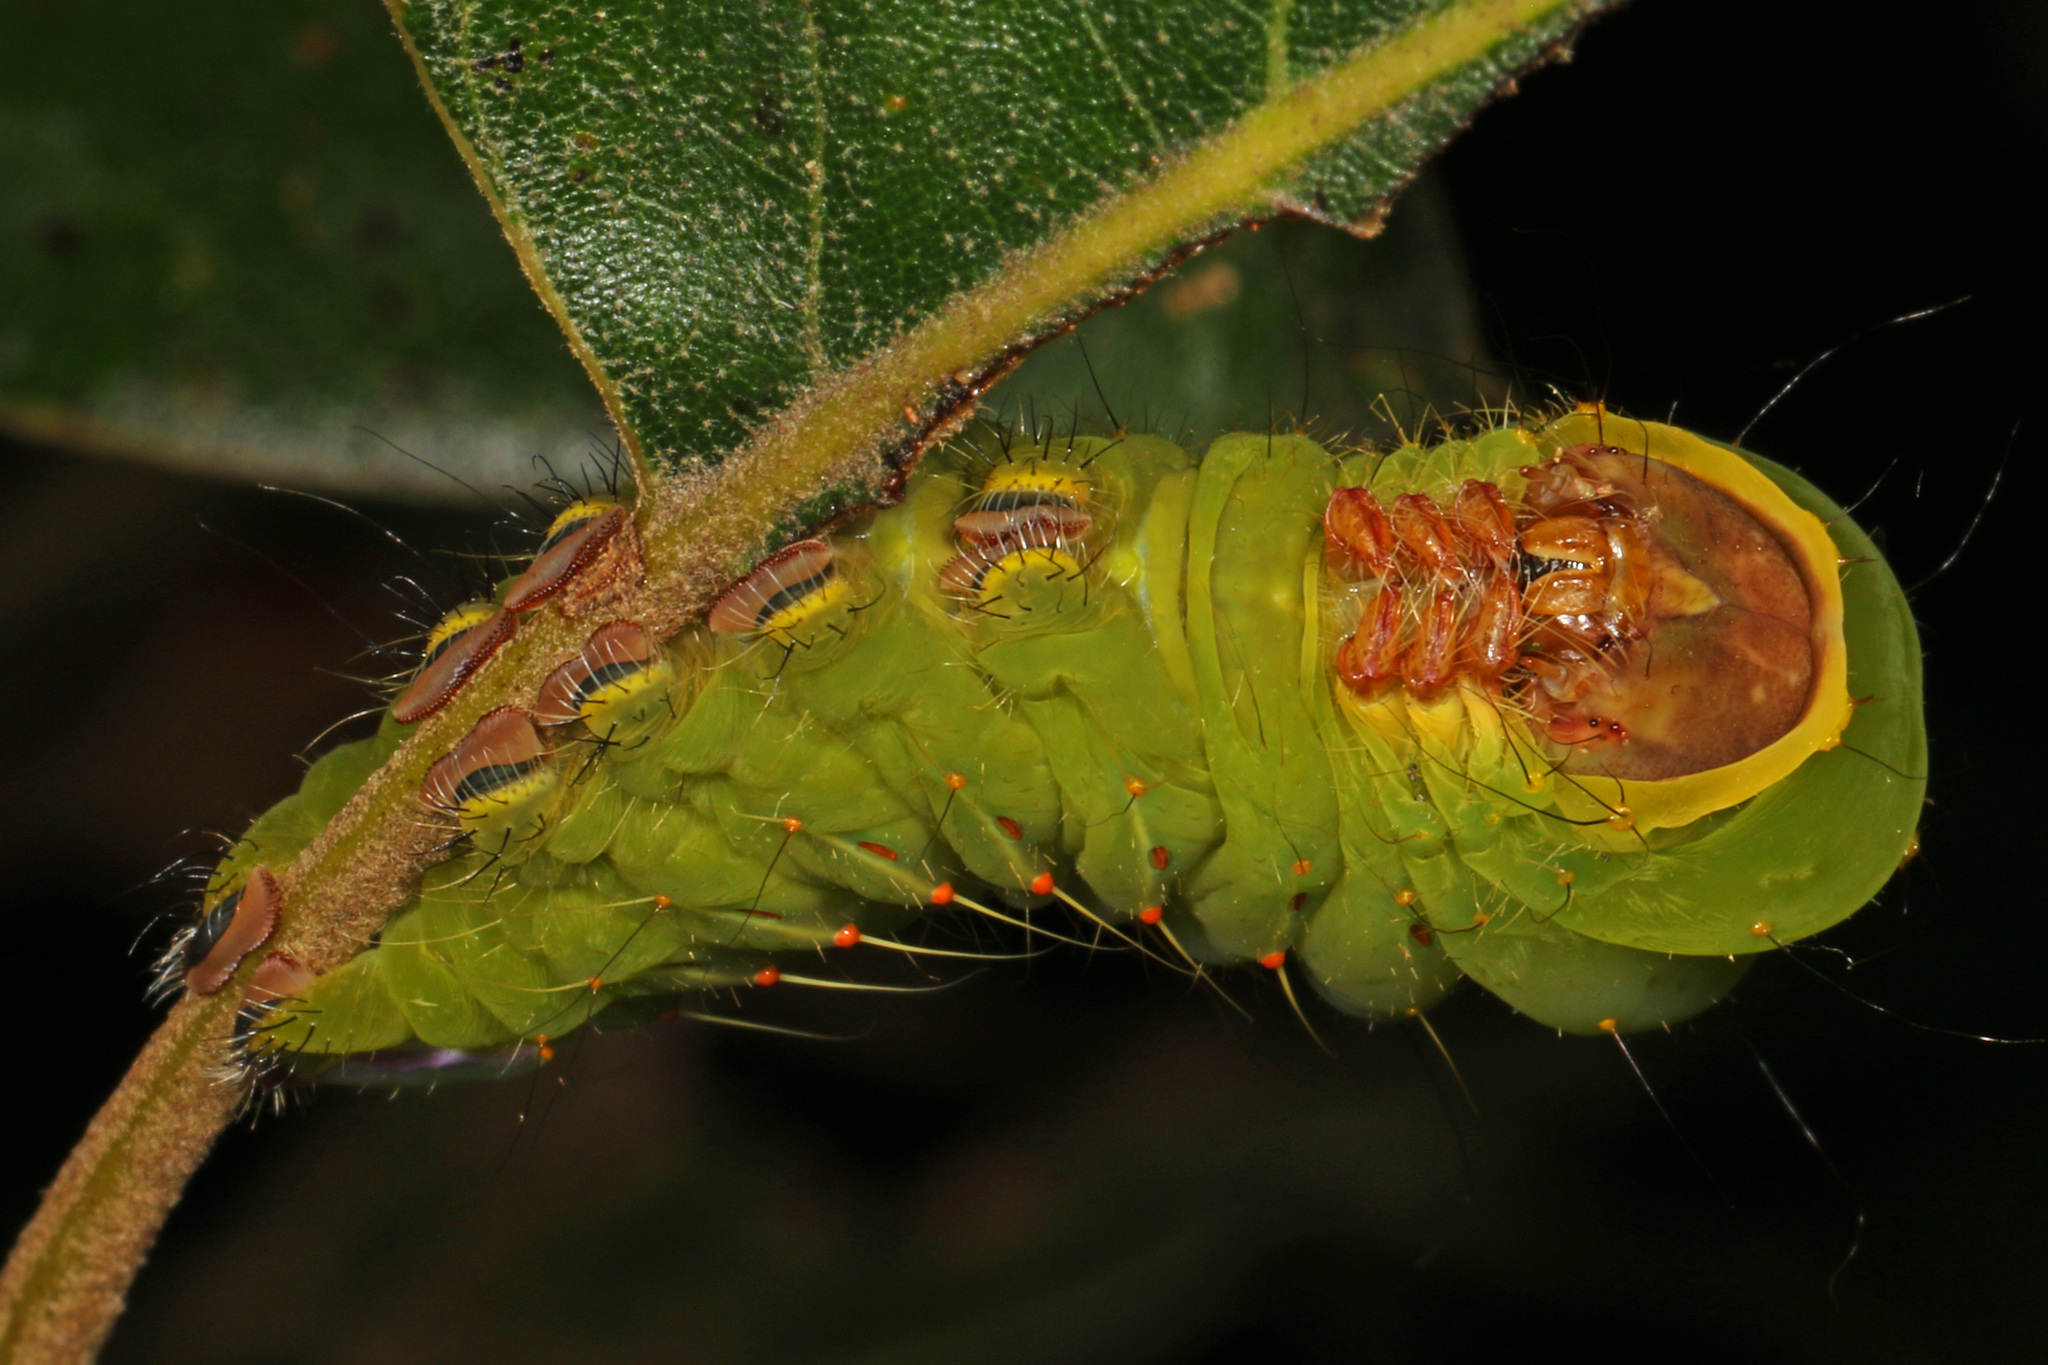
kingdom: Animalia
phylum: Arthropoda
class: Insecta
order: Lepidoptera
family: Saturniidae
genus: Antheraea
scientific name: Antheraea polyphemus
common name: Polyphemus moth
